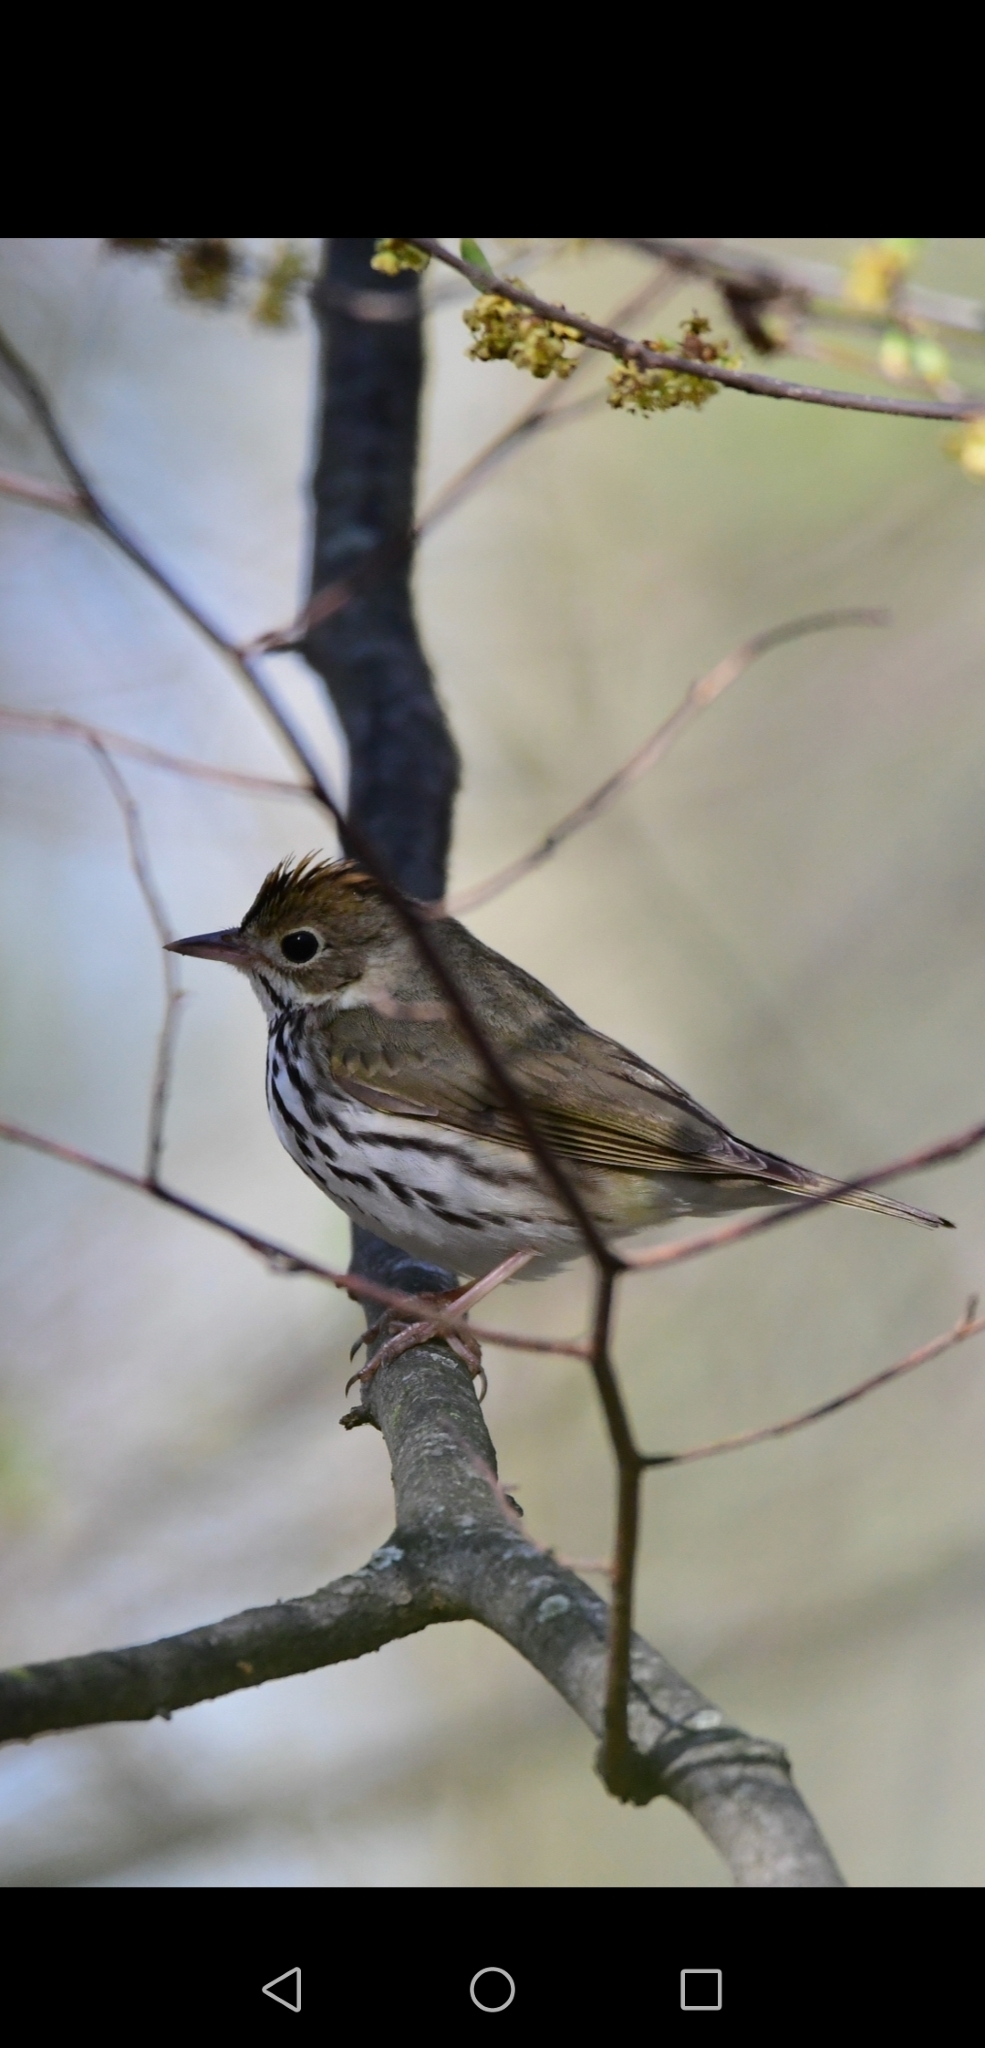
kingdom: Animalia
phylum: Chordata
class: Aves
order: Passeriformes
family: Parulidae
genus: Seiurus
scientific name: Seiurus aurocapilla
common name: Ovenbird
